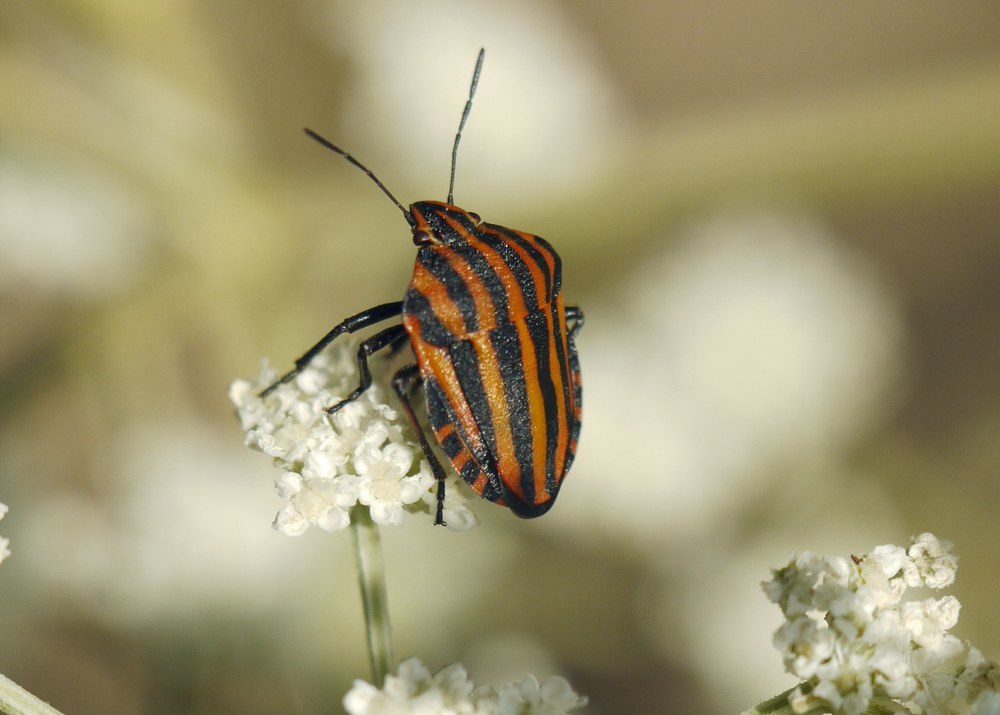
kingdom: Animalia
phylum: Arthropoda
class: Insecta
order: Hemiptera
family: Pentatomidae
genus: Graphosoma
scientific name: Graphosoma italicum
